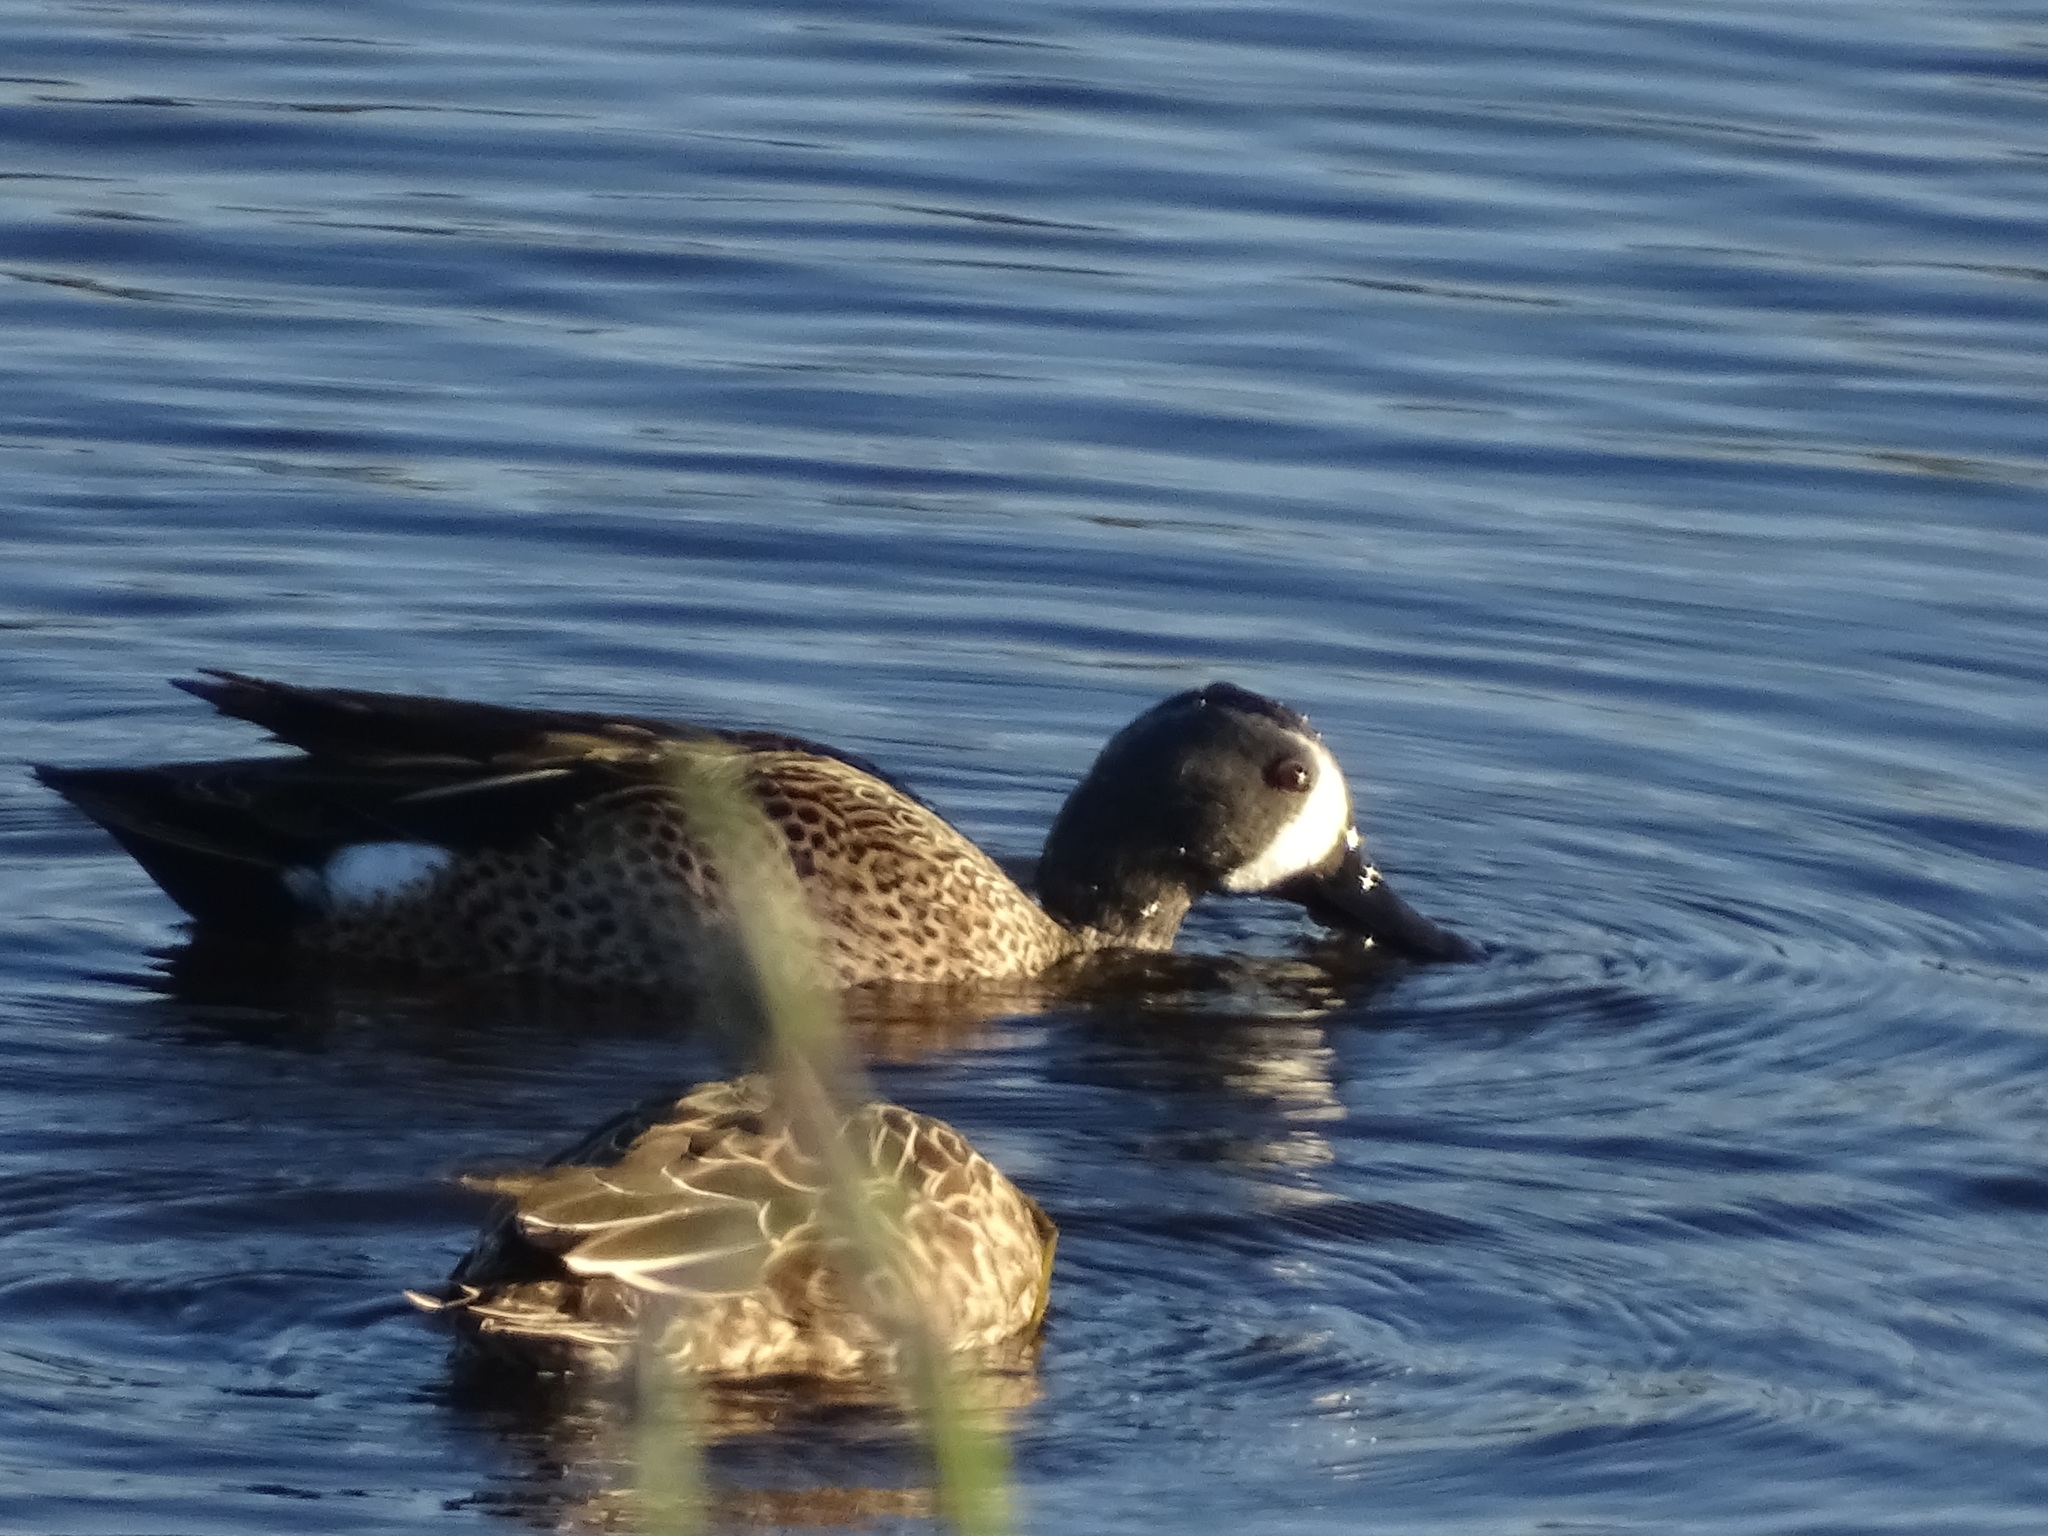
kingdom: Animalia
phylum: Chordata
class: Aves
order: Anseriformes
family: Anatidae
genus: Spatula
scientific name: Spatula discors
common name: Blue-winged teal
